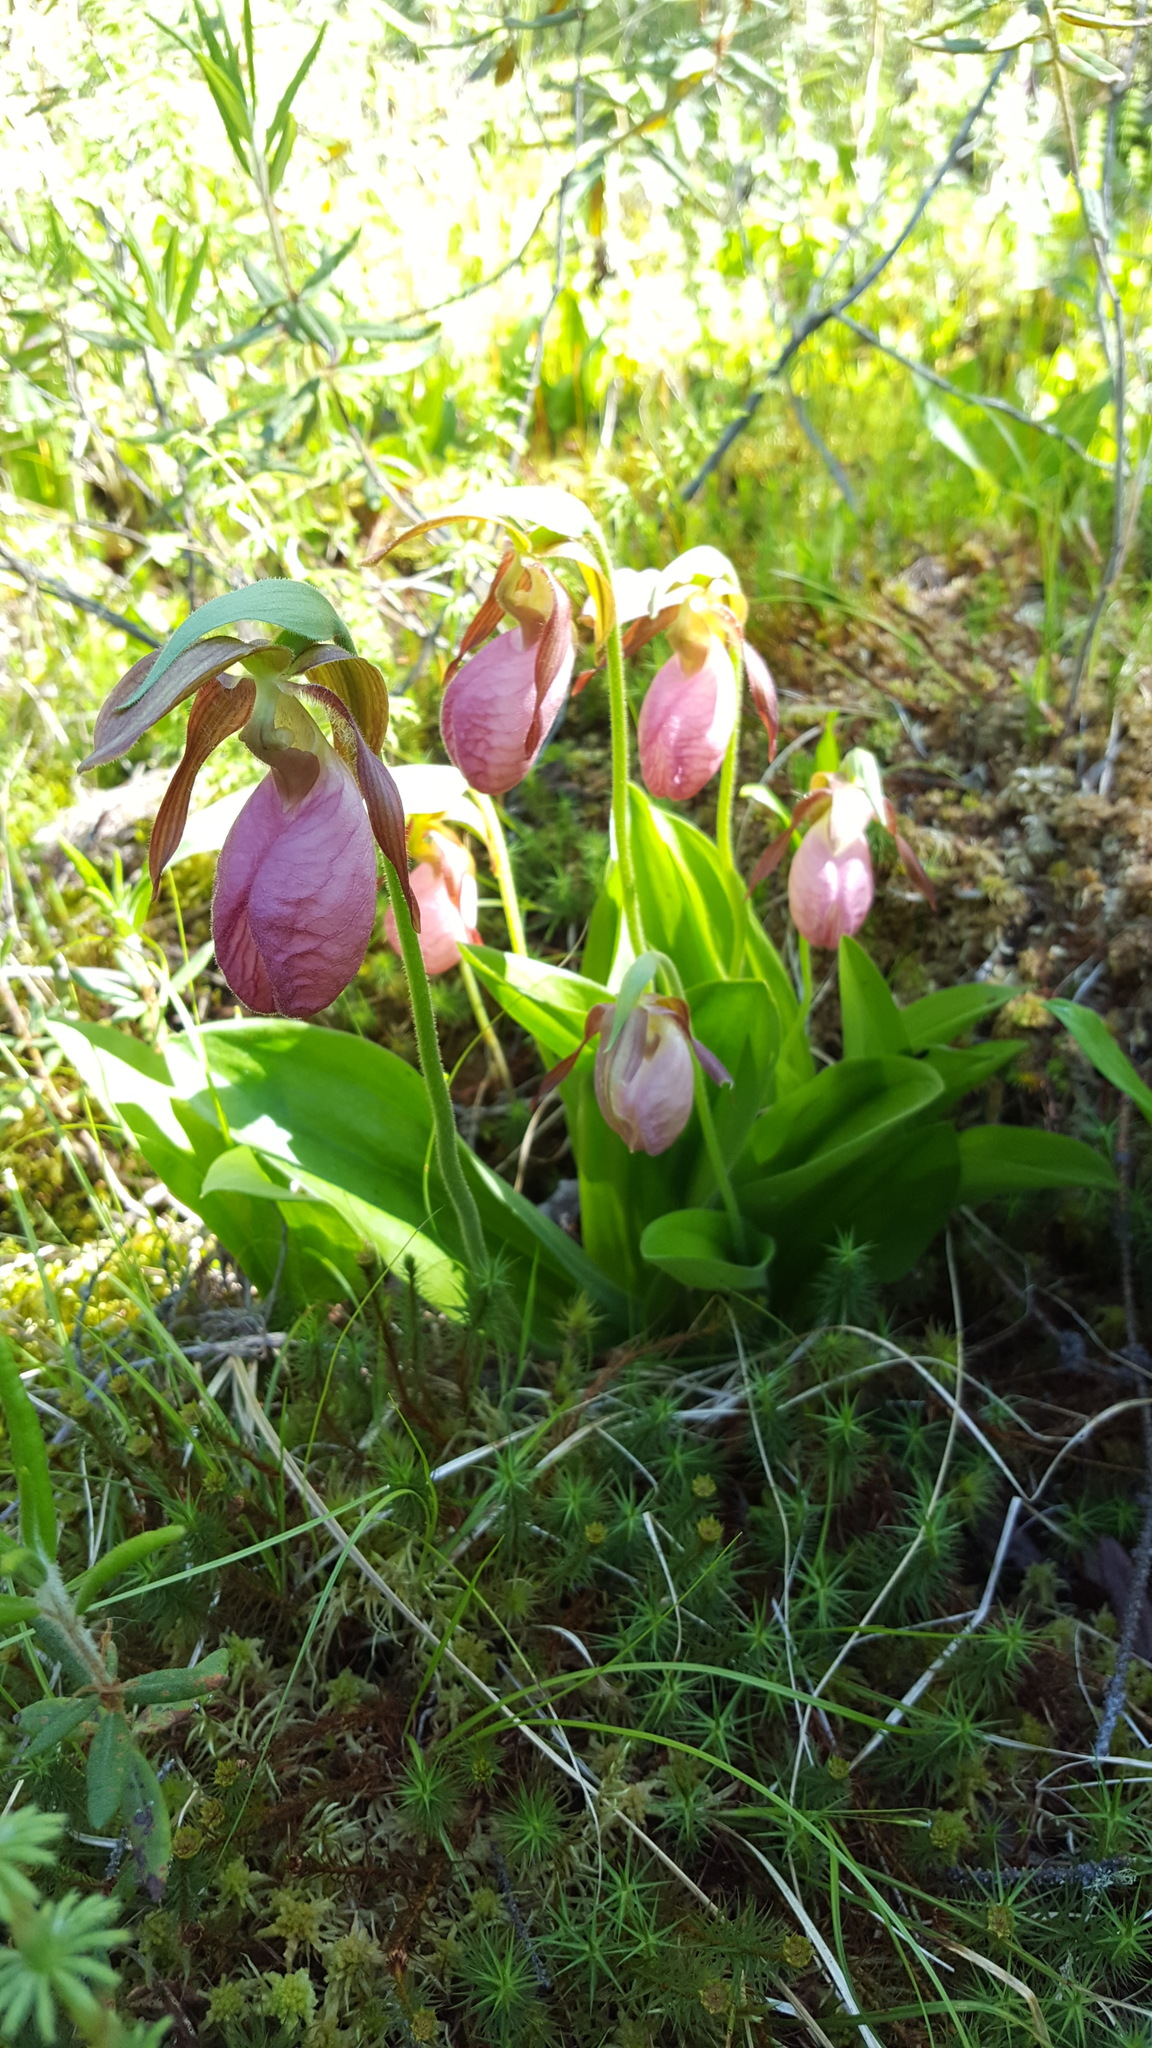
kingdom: Plantae
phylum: Tracheophyta
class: Liliopsida
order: Asparagales
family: Orchidaceae
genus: Cypripedium
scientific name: Cypripedium acaule
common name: Pink lady's-slipper
